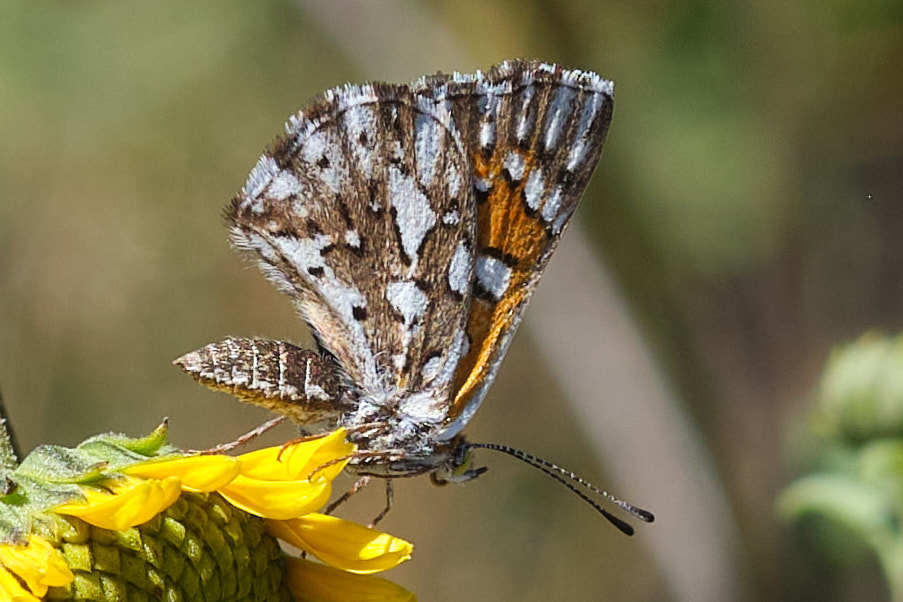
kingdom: Animalia
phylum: Arthropoda
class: Insecta
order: Lepidoptera
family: Riodinidae
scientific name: Riodinidae
